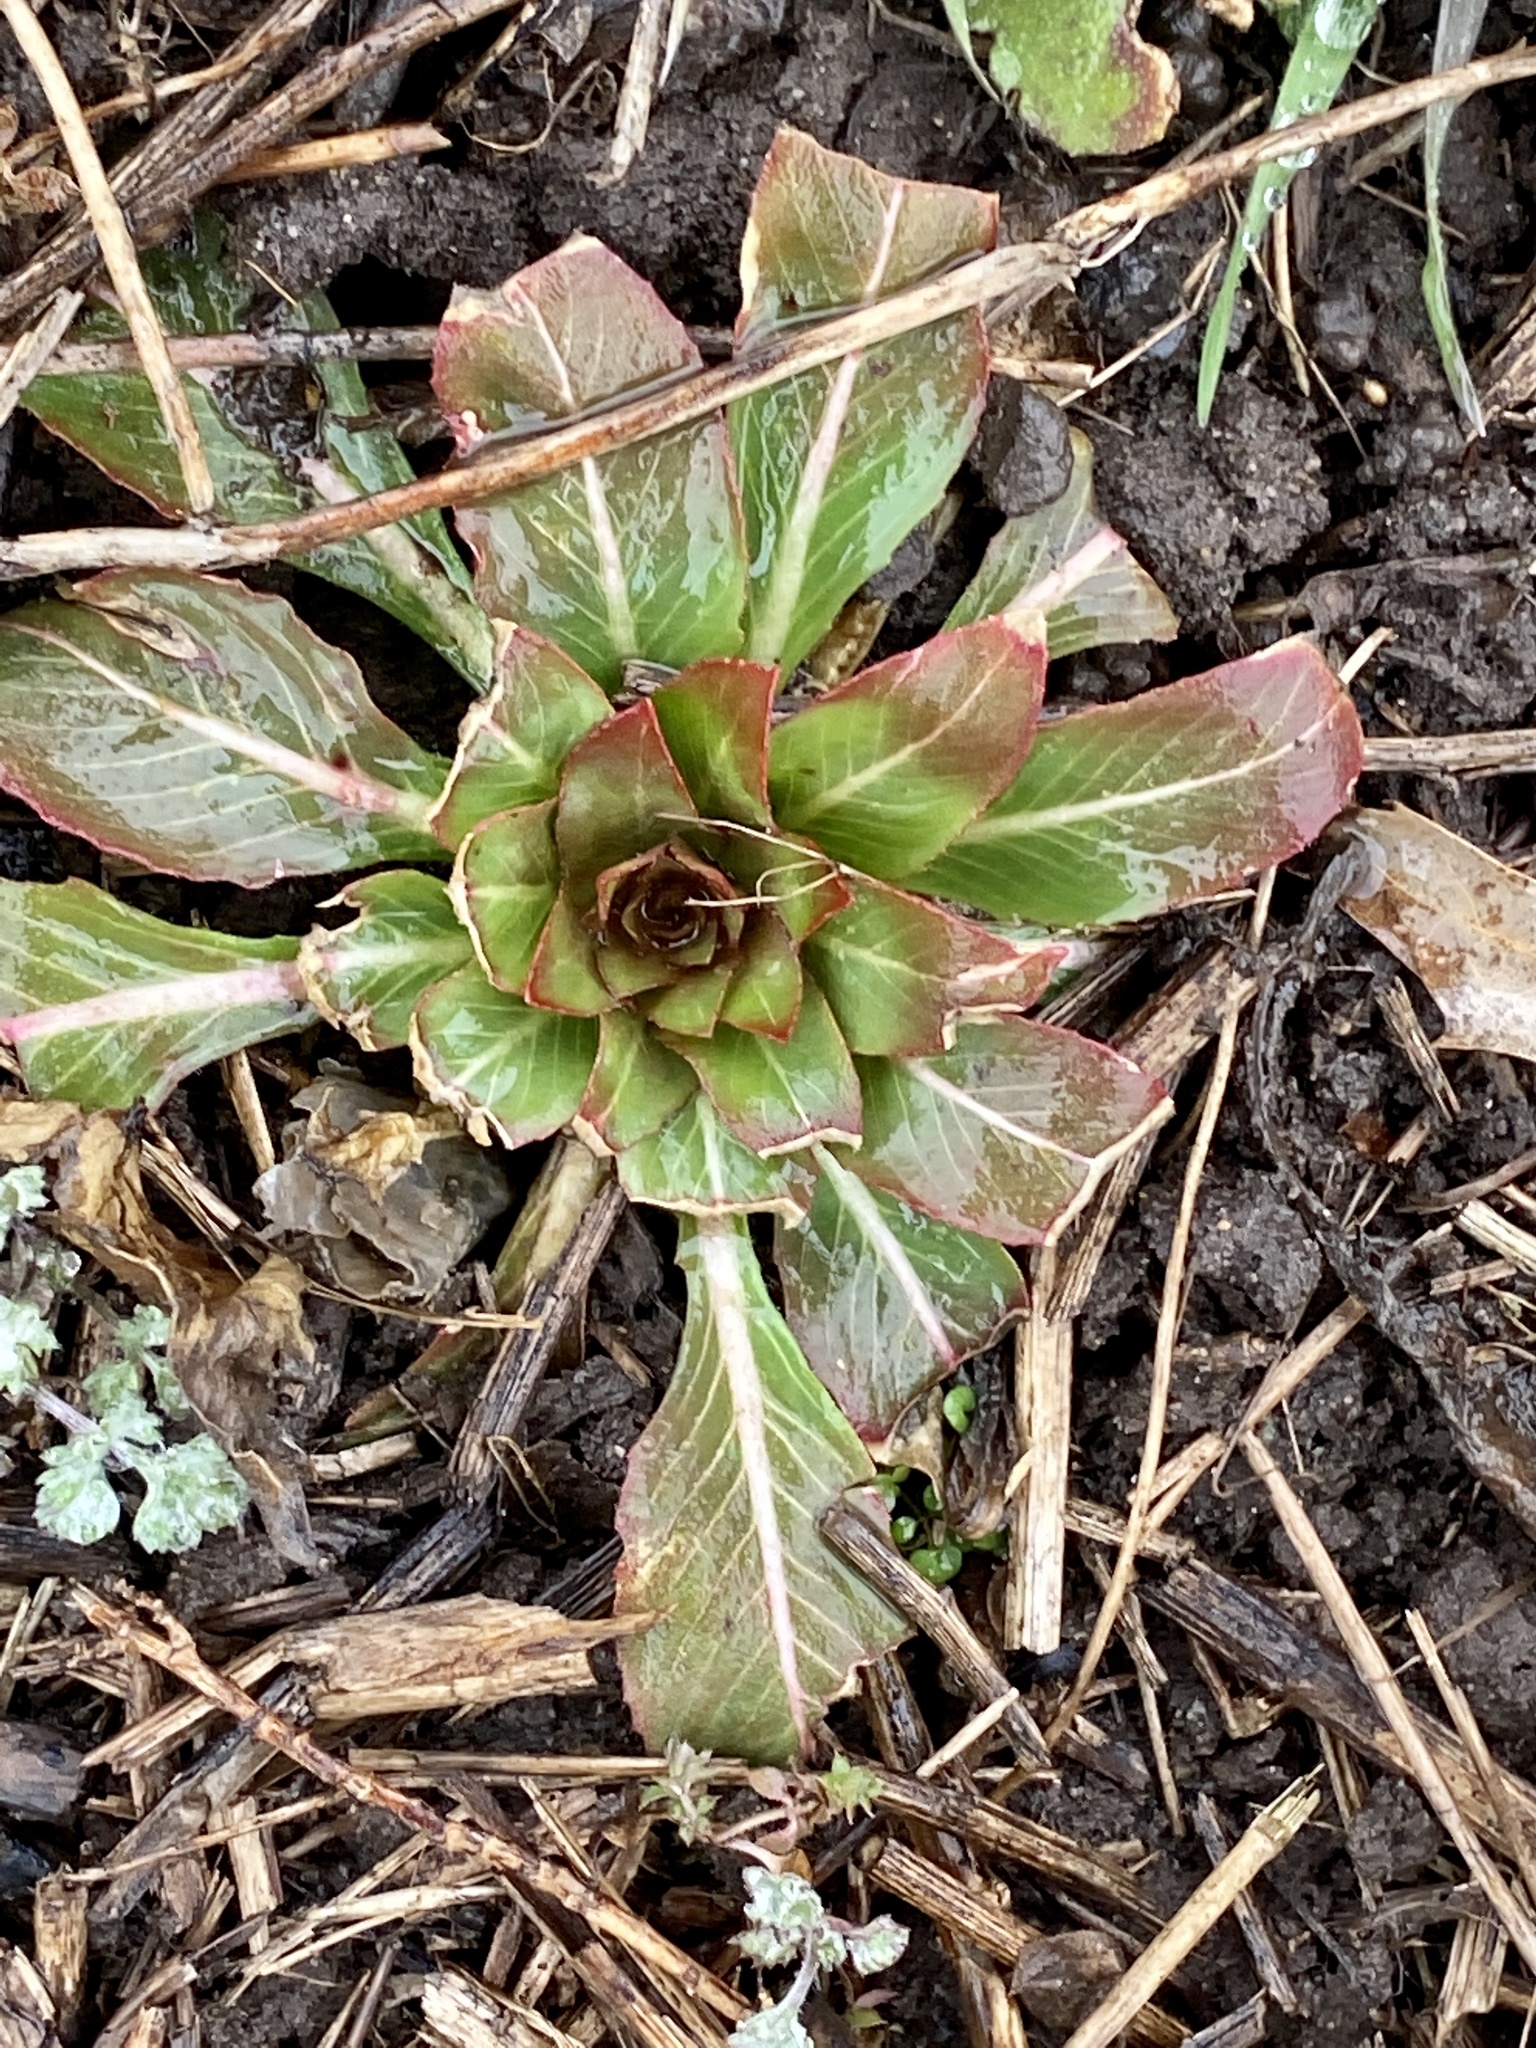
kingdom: Plantae
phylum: Tracheophyta
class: Magnoliopsida
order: Myrtales
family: Onagraceae
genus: Oenothera
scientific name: Oenothera biennis
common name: Common evening-primrose
